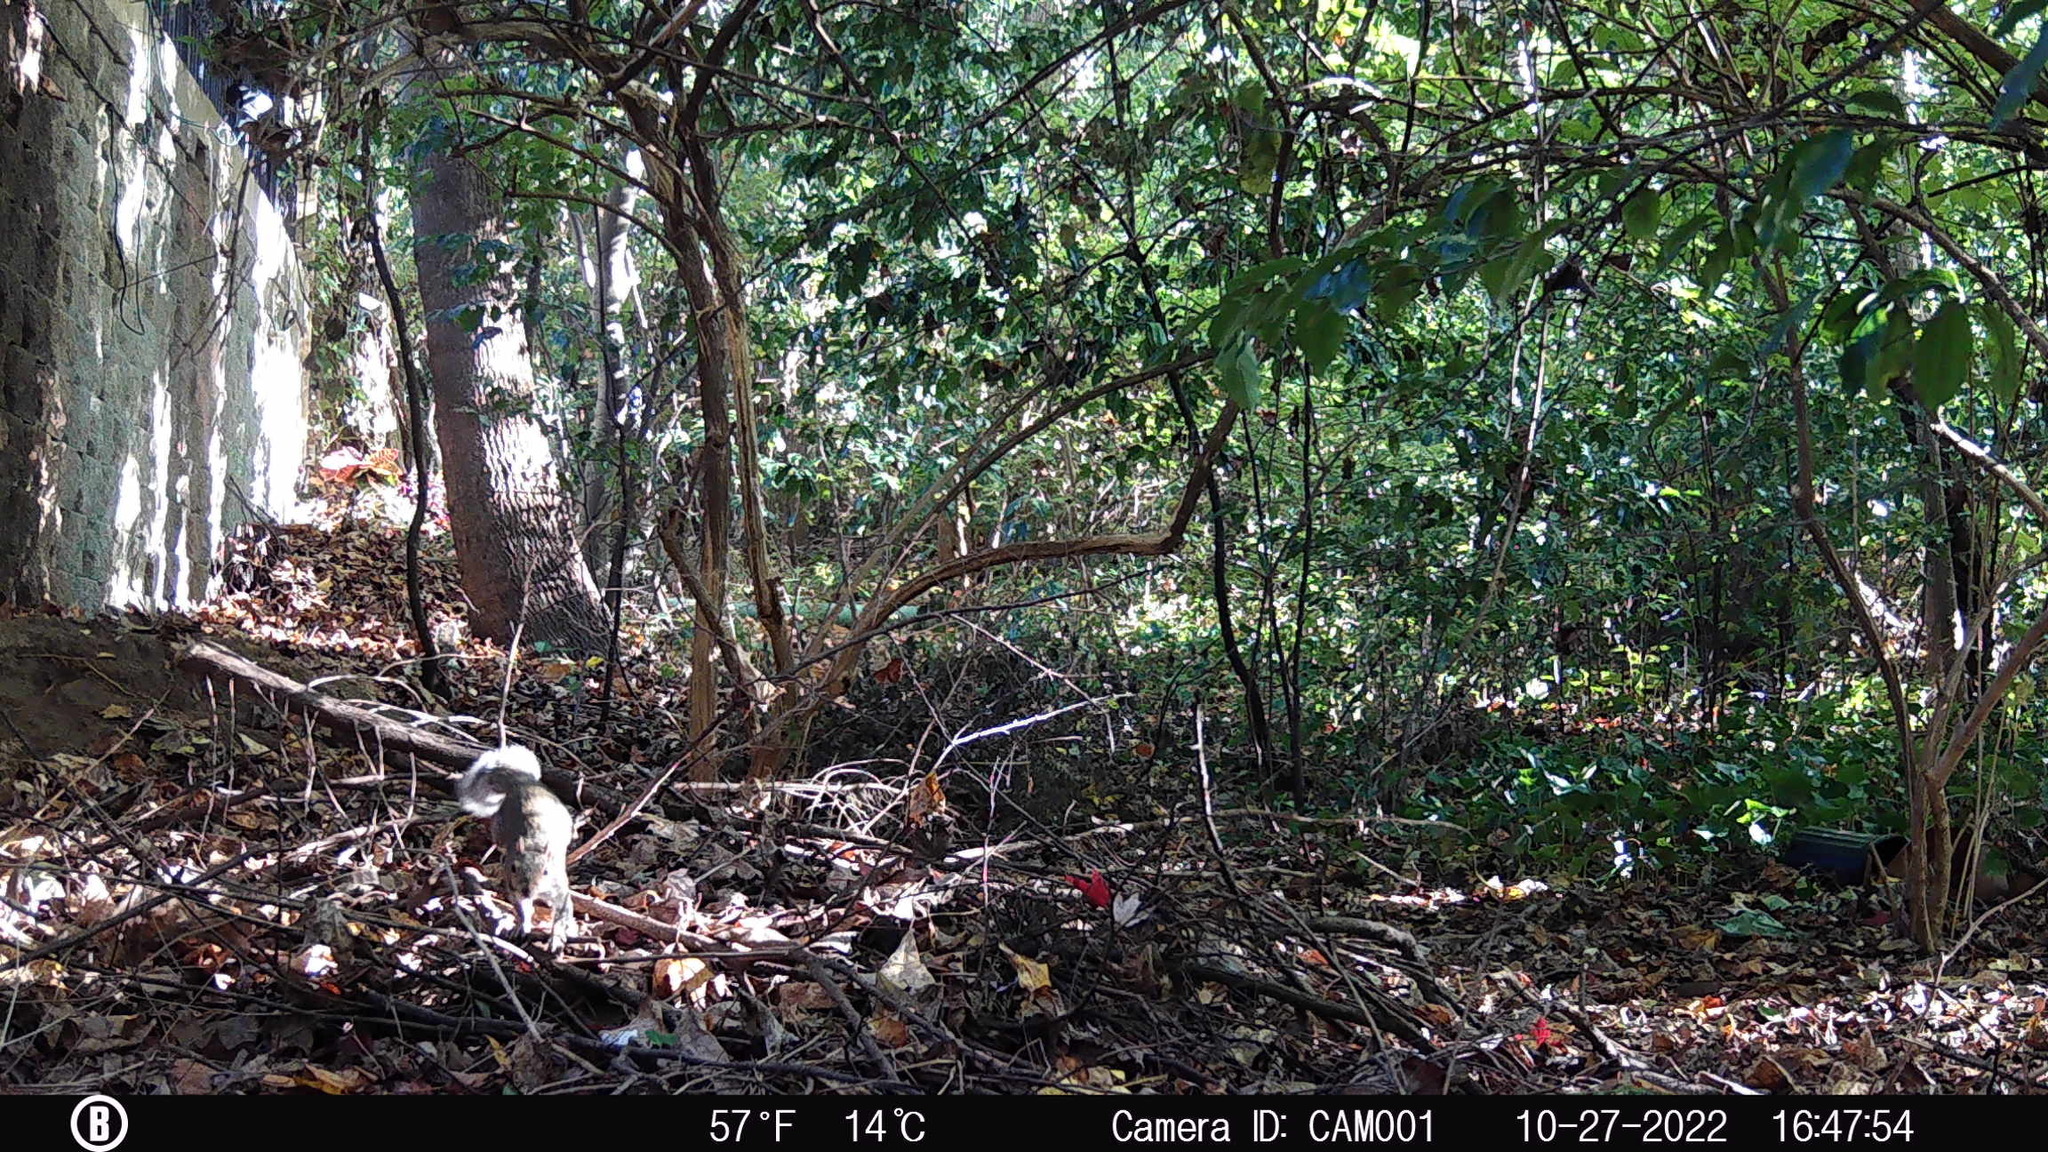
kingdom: Animalia
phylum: Chordata
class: Mammalia
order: Rodentia
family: Sciuridae
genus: Sciurus
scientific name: Sciurus carolinensis
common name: Eastern gray squirrel
